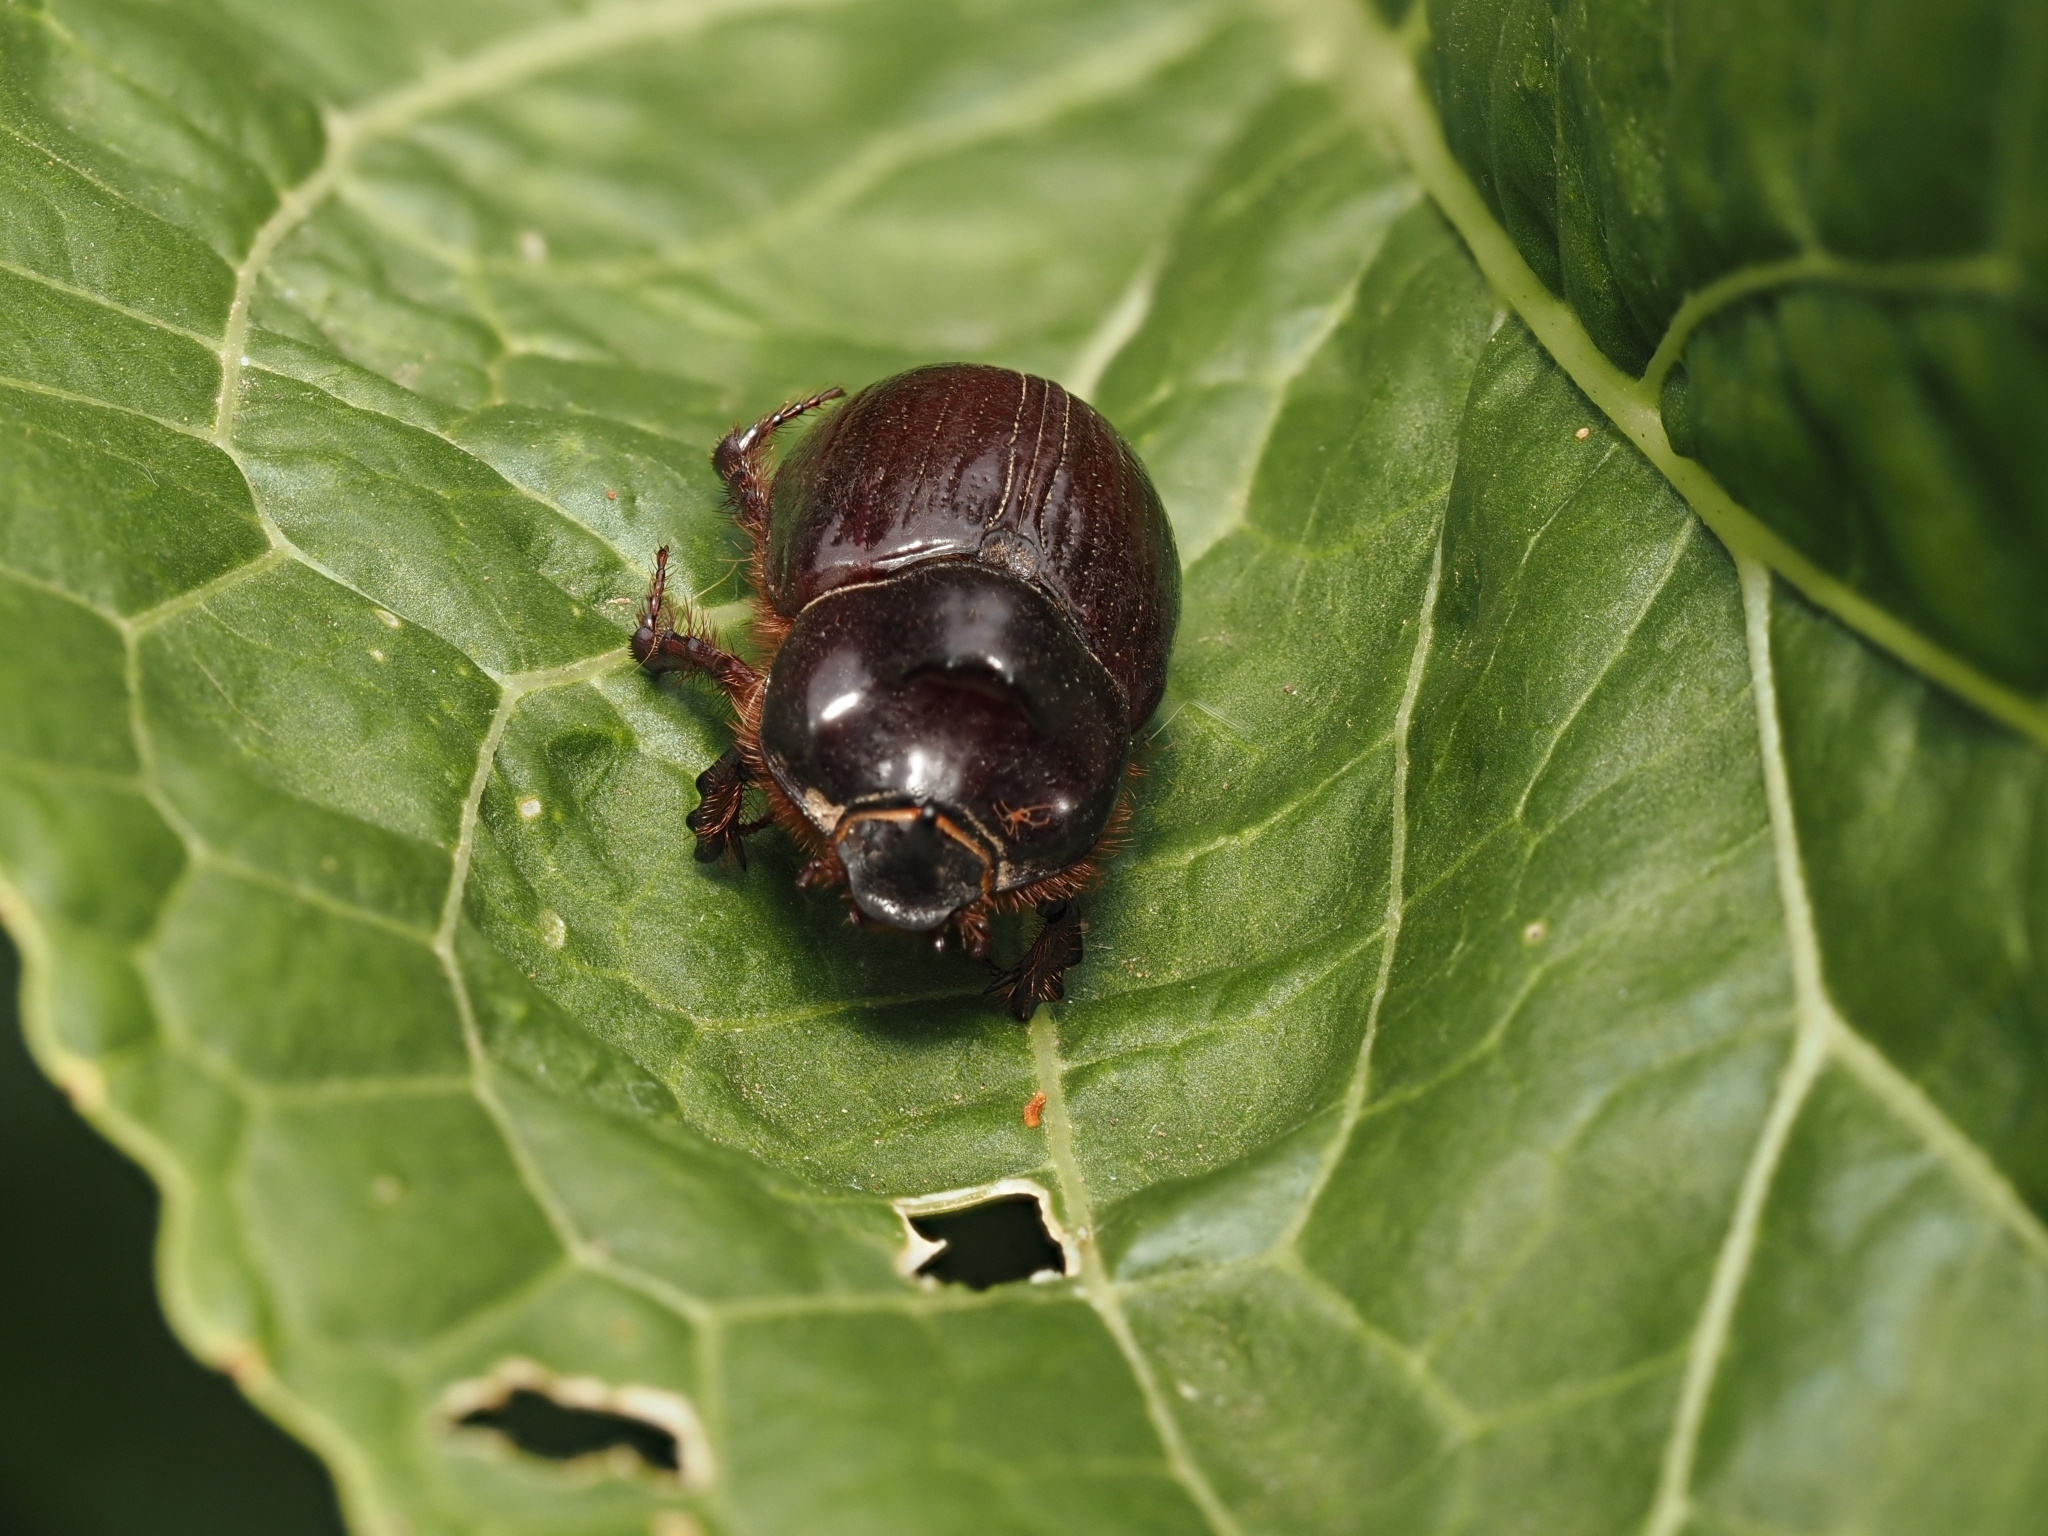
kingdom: Animalia
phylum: Arthropoda
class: Insecta
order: Coleoptera
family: Scarabaeidae
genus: Dasygnathus
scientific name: Dasygnathus trituberculatus
